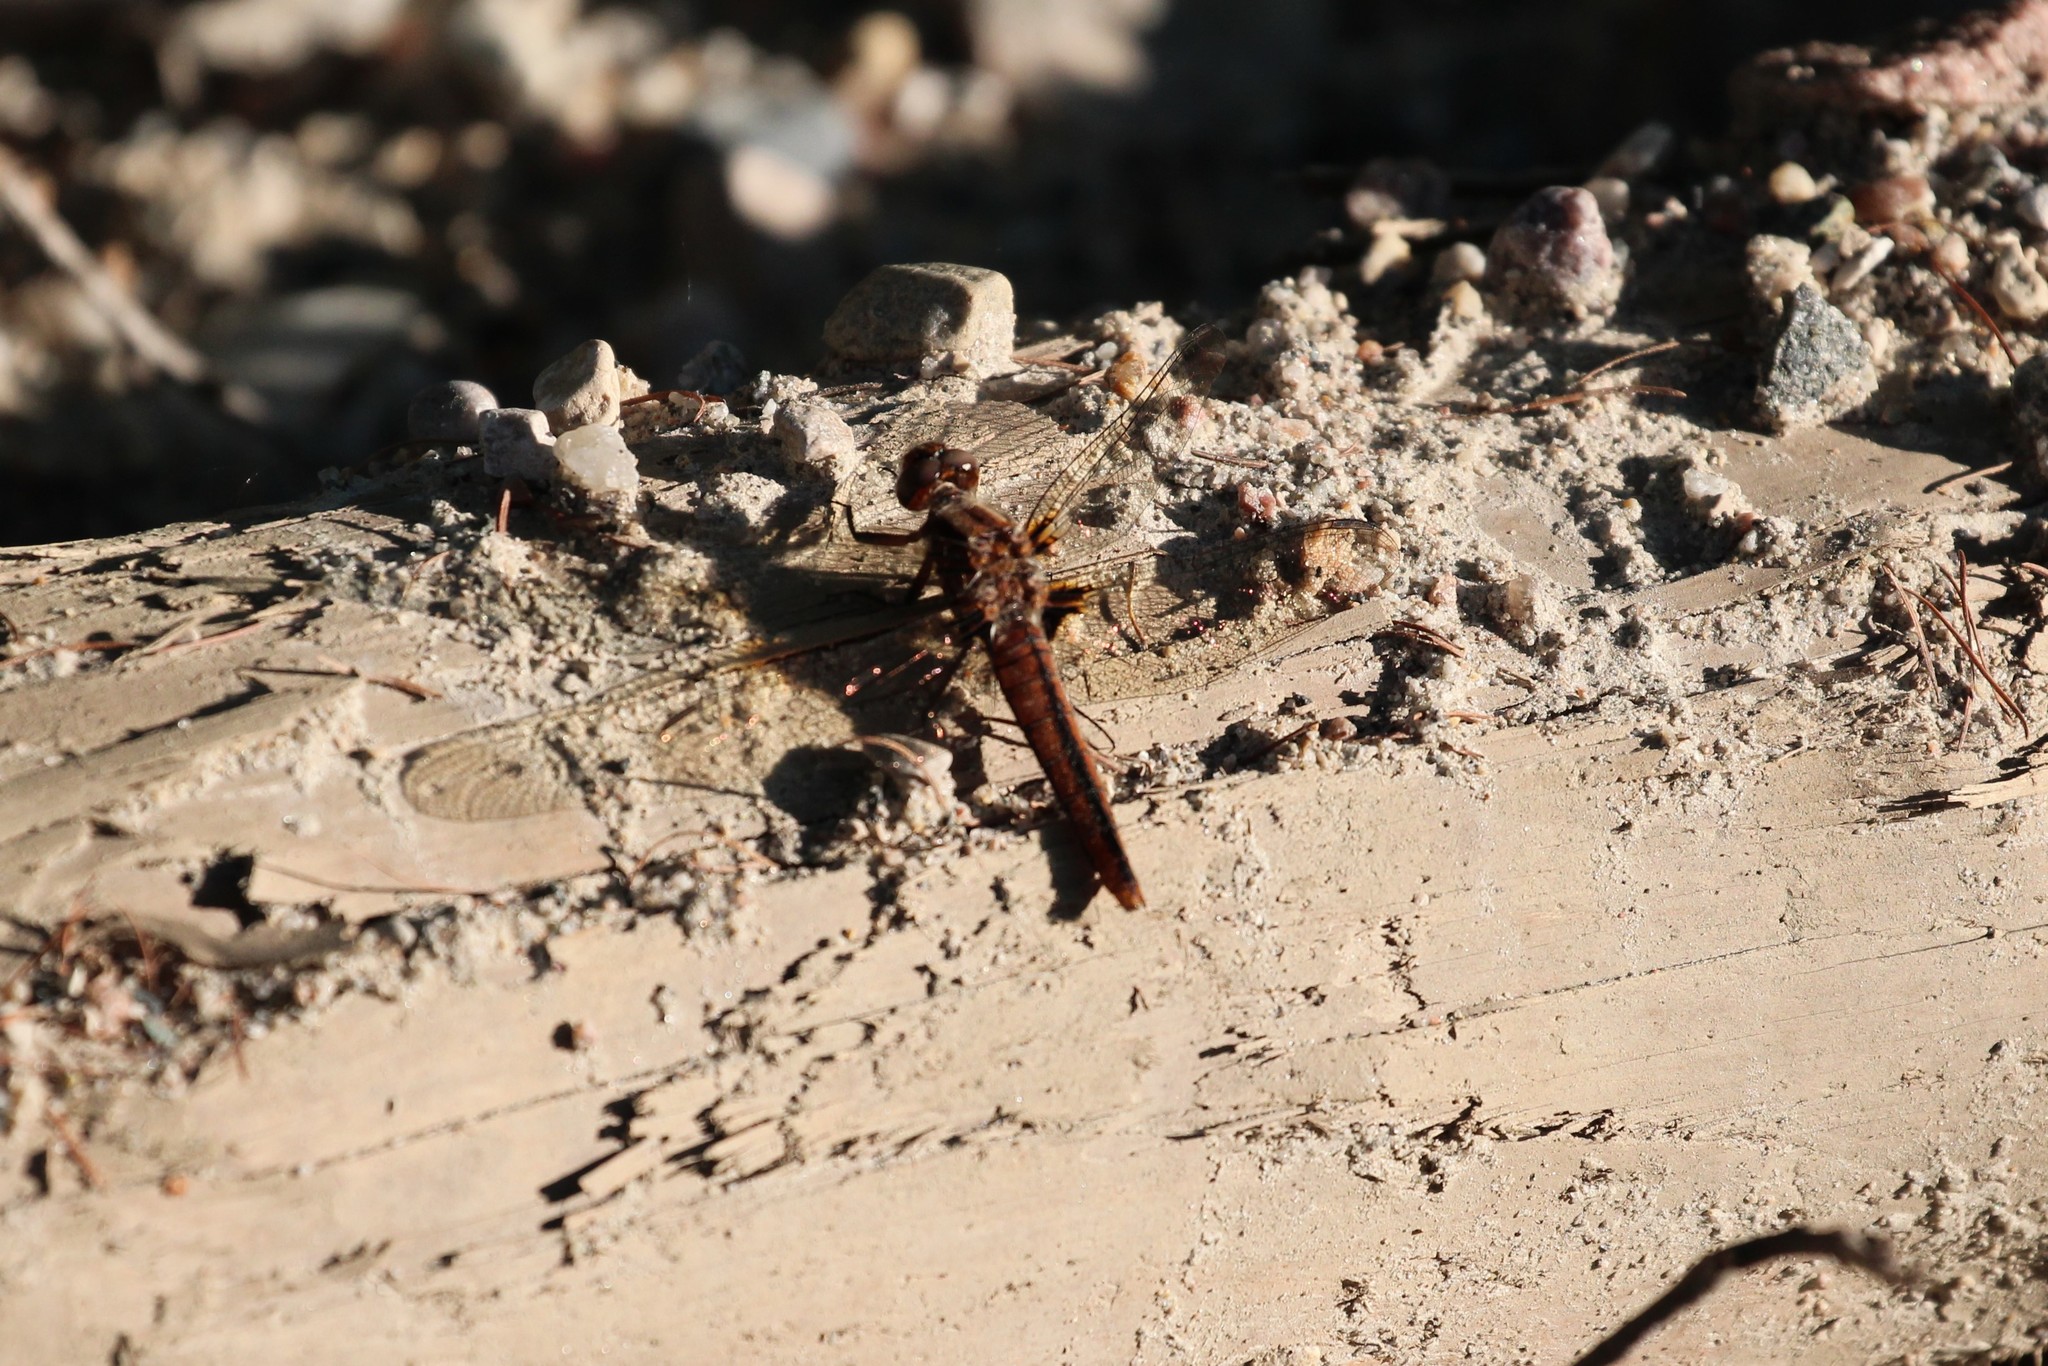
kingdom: Animalia
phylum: Arthropoda
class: Insecta
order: Odonata
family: Libellulidae
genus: Ladona
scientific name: Ladona julia
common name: Chalk-fronted corporal
